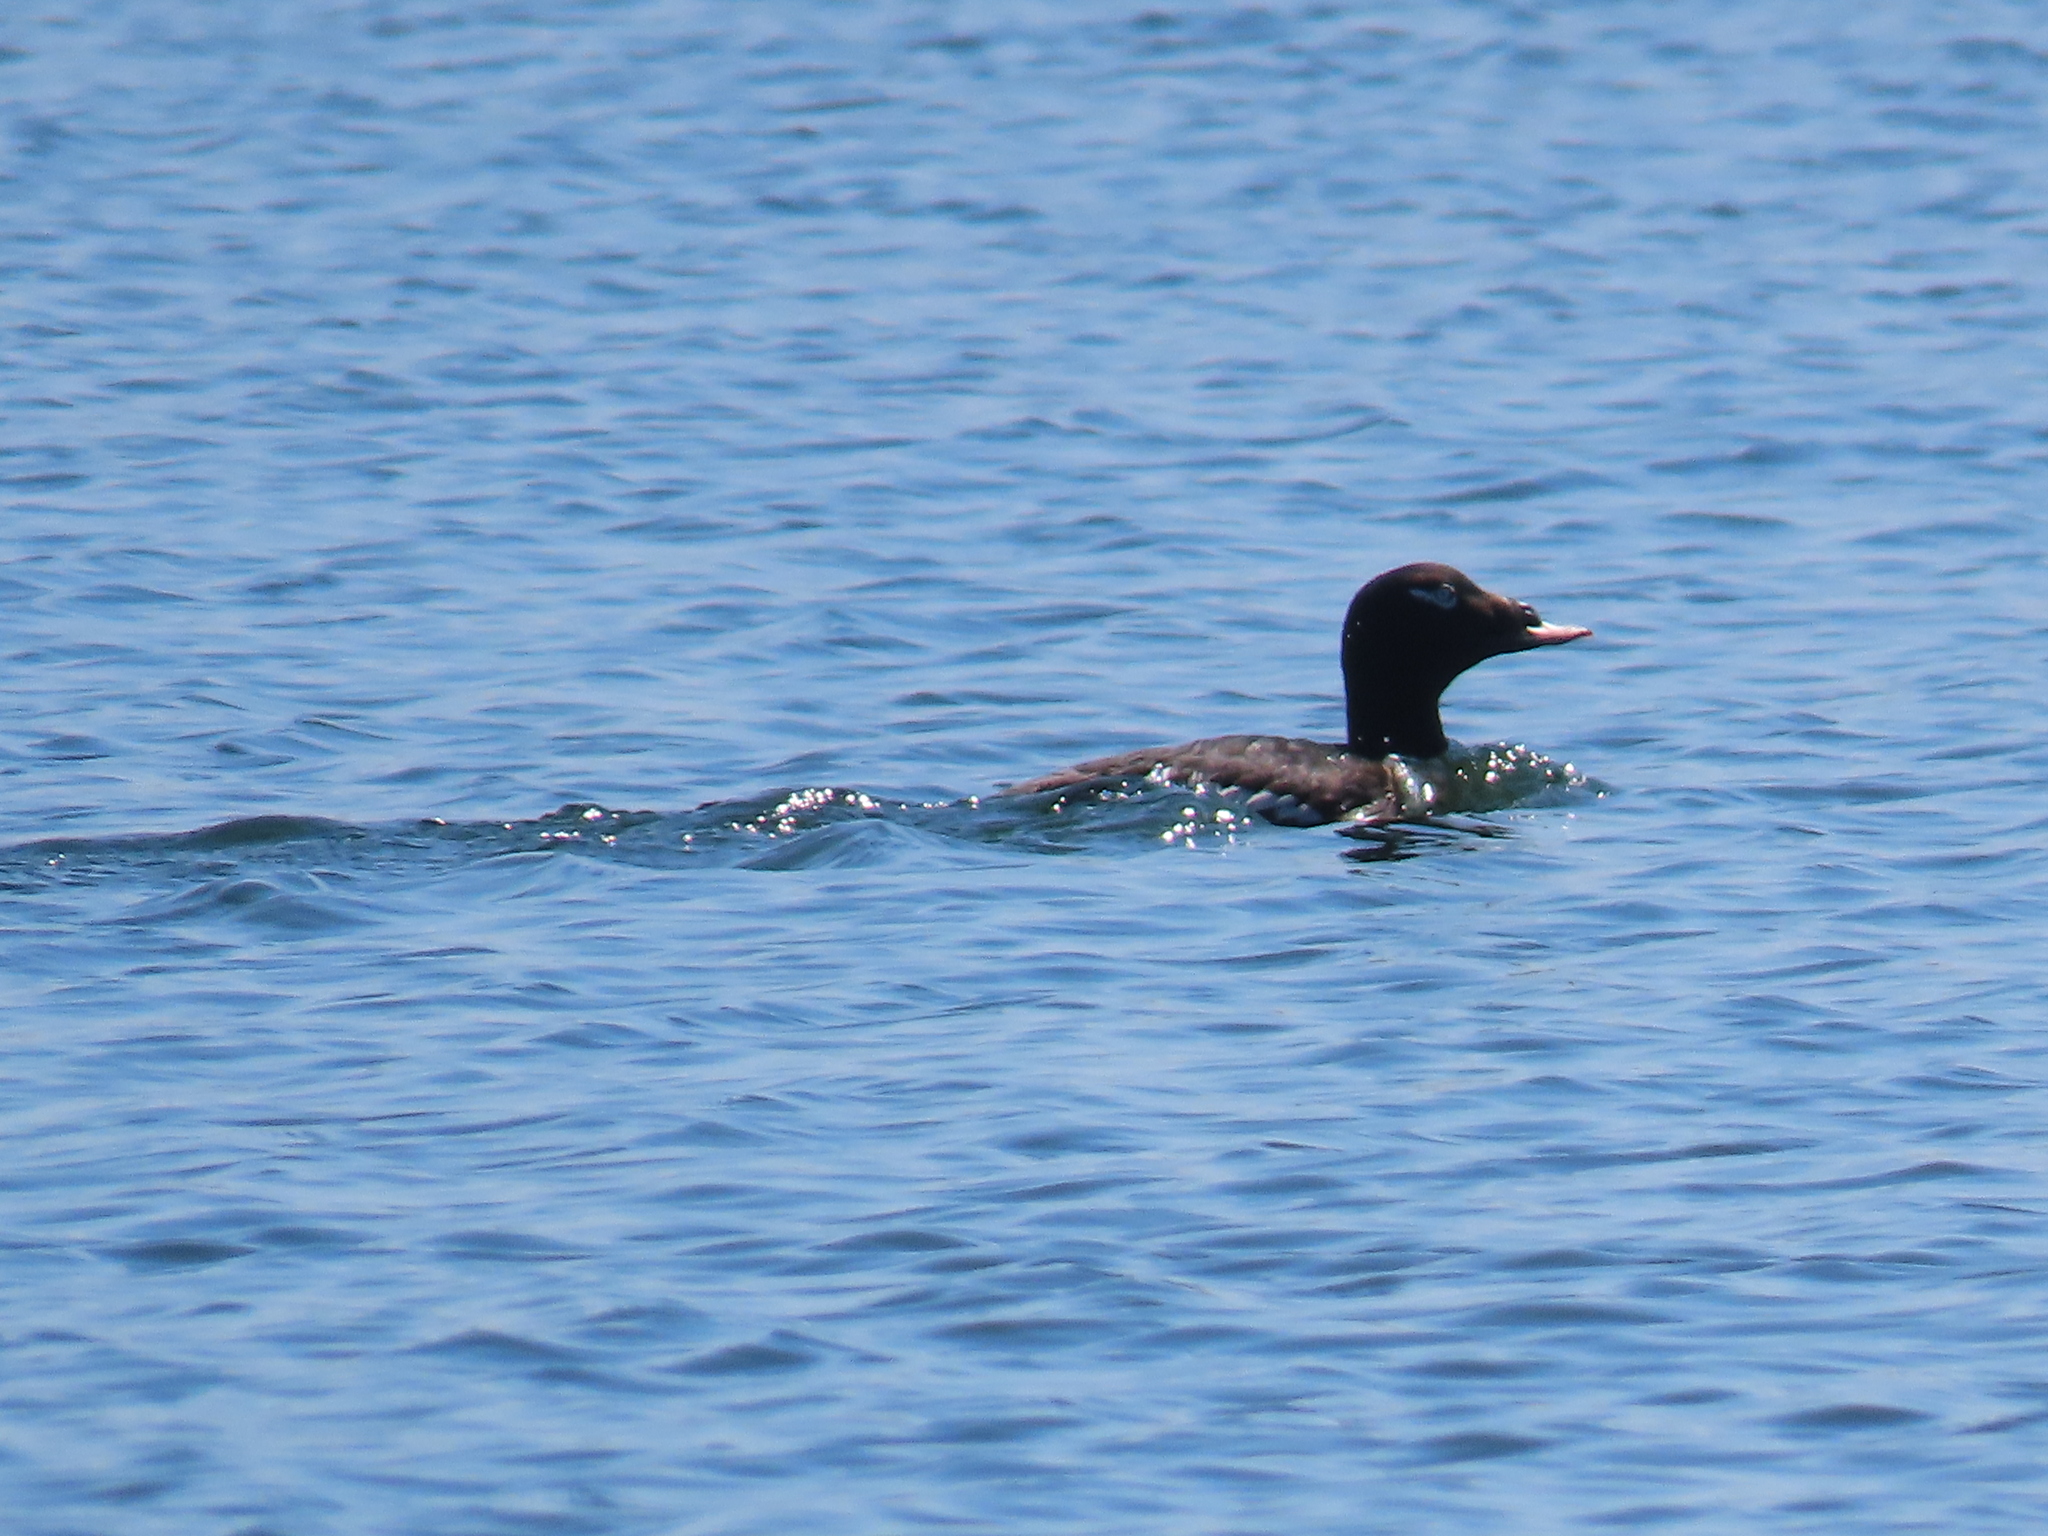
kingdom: Animalia
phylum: Chordata
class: Aves
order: Anseriformes
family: Anatidae
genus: Melanitta
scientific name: Melanitta deglandi
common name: White-winged scoter
